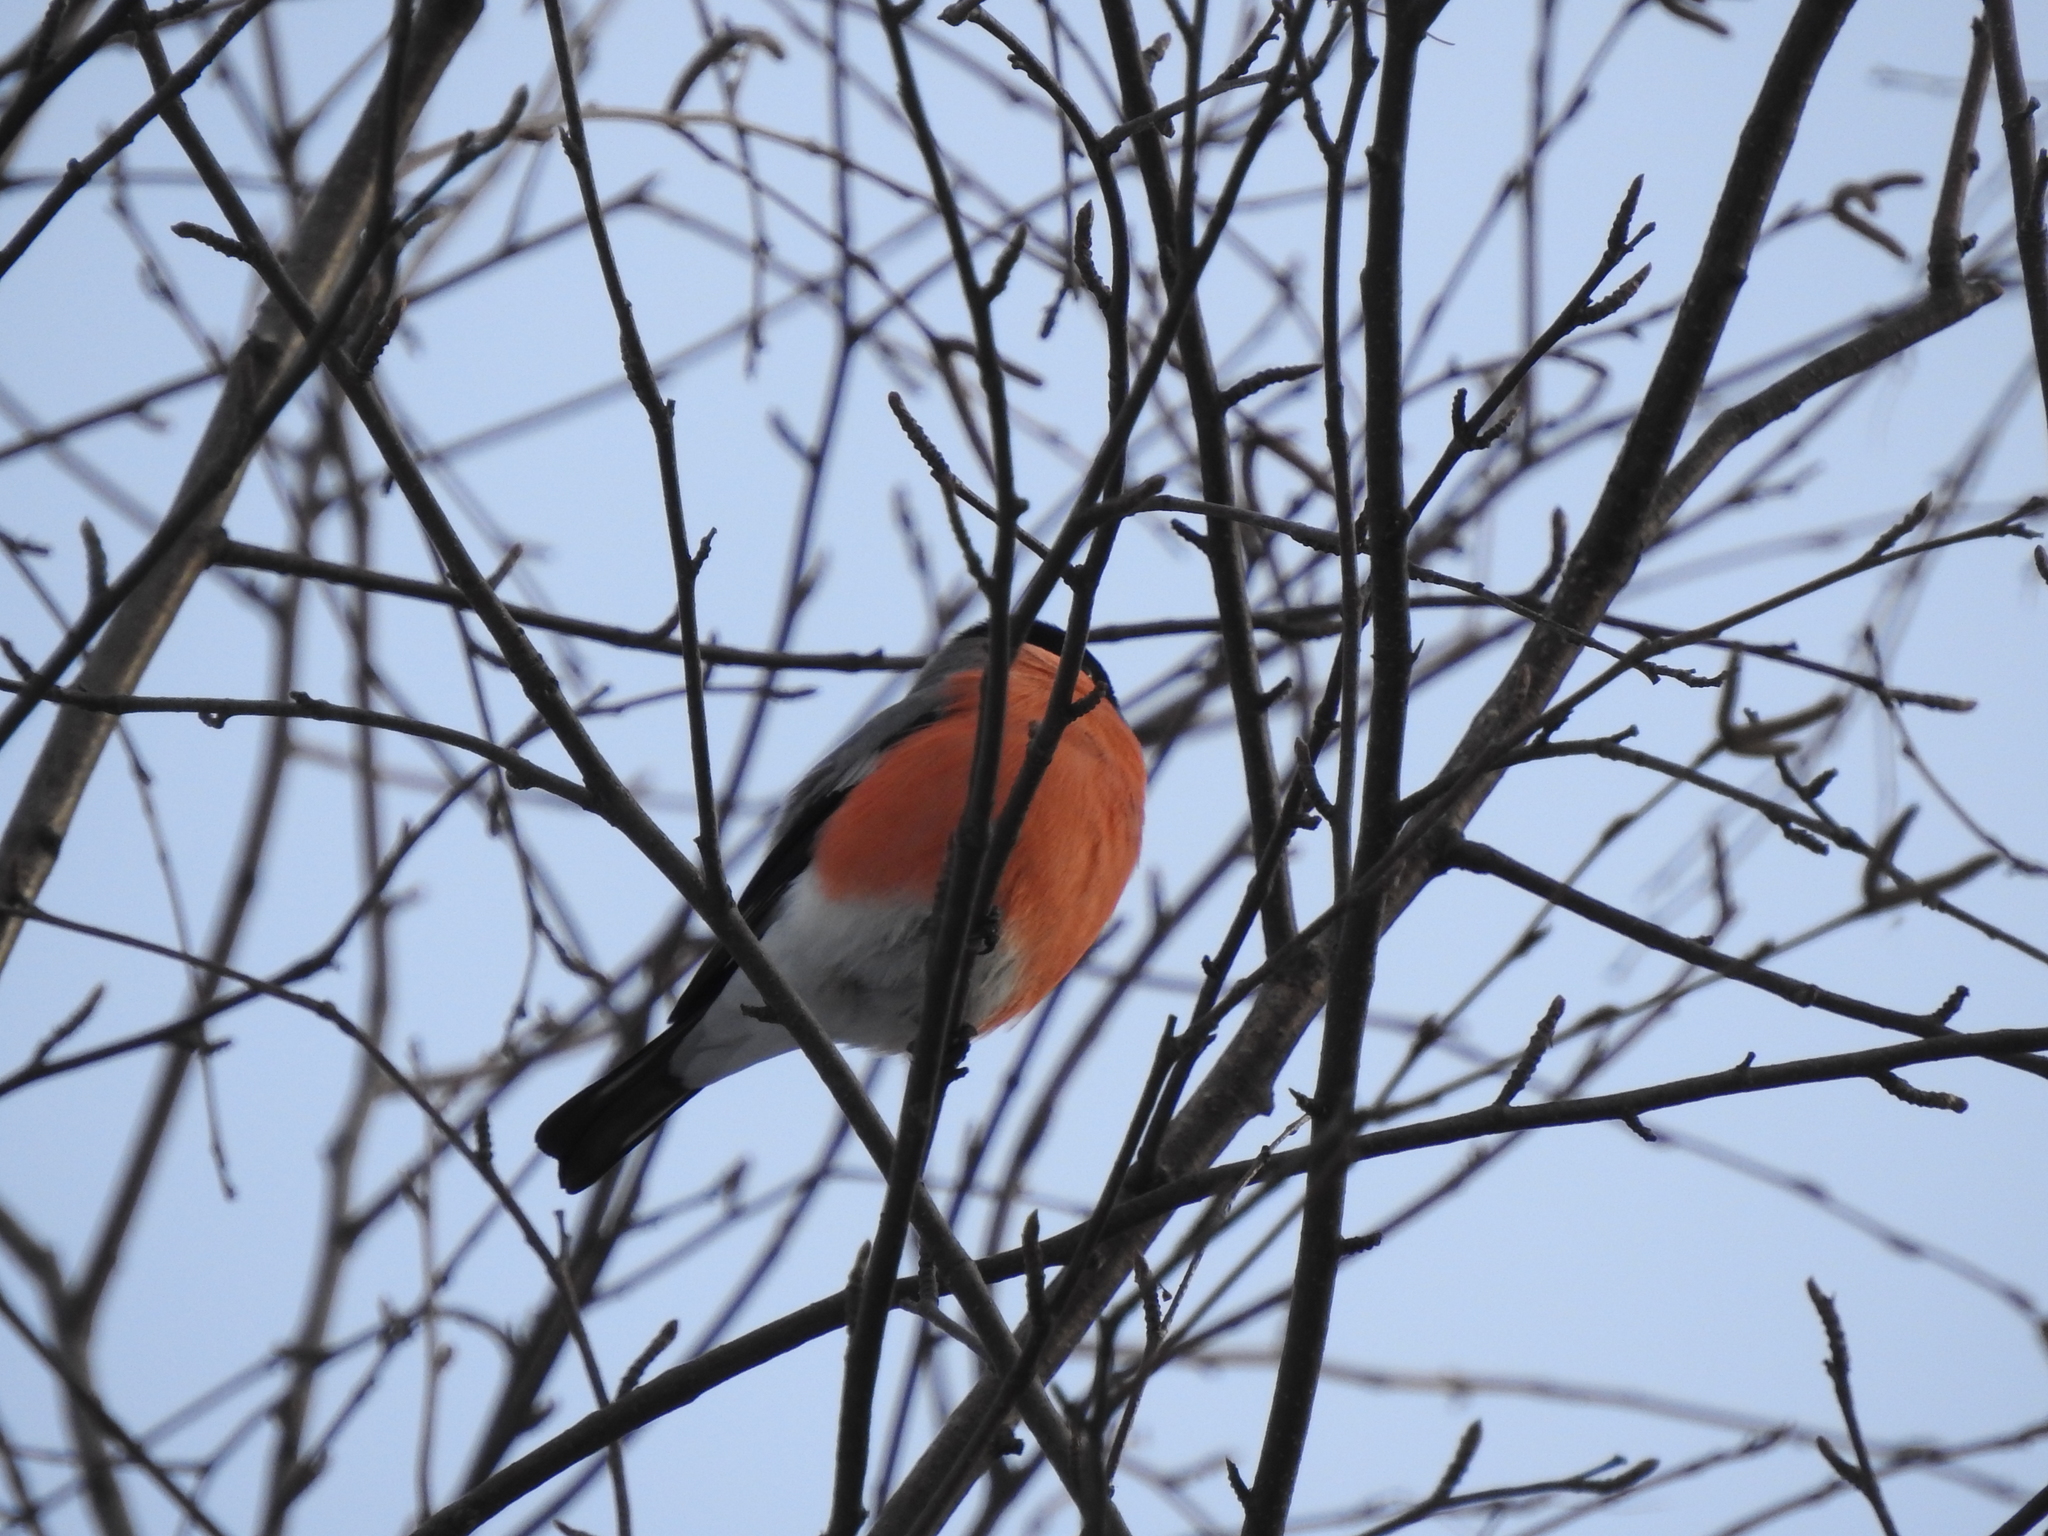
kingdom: Animalia
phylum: Chordata
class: Aves
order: Passeriformes
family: Fringillidae
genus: Pyrrhula
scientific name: Pyrrhula pyrrhula
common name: Eurasian bullfinch
